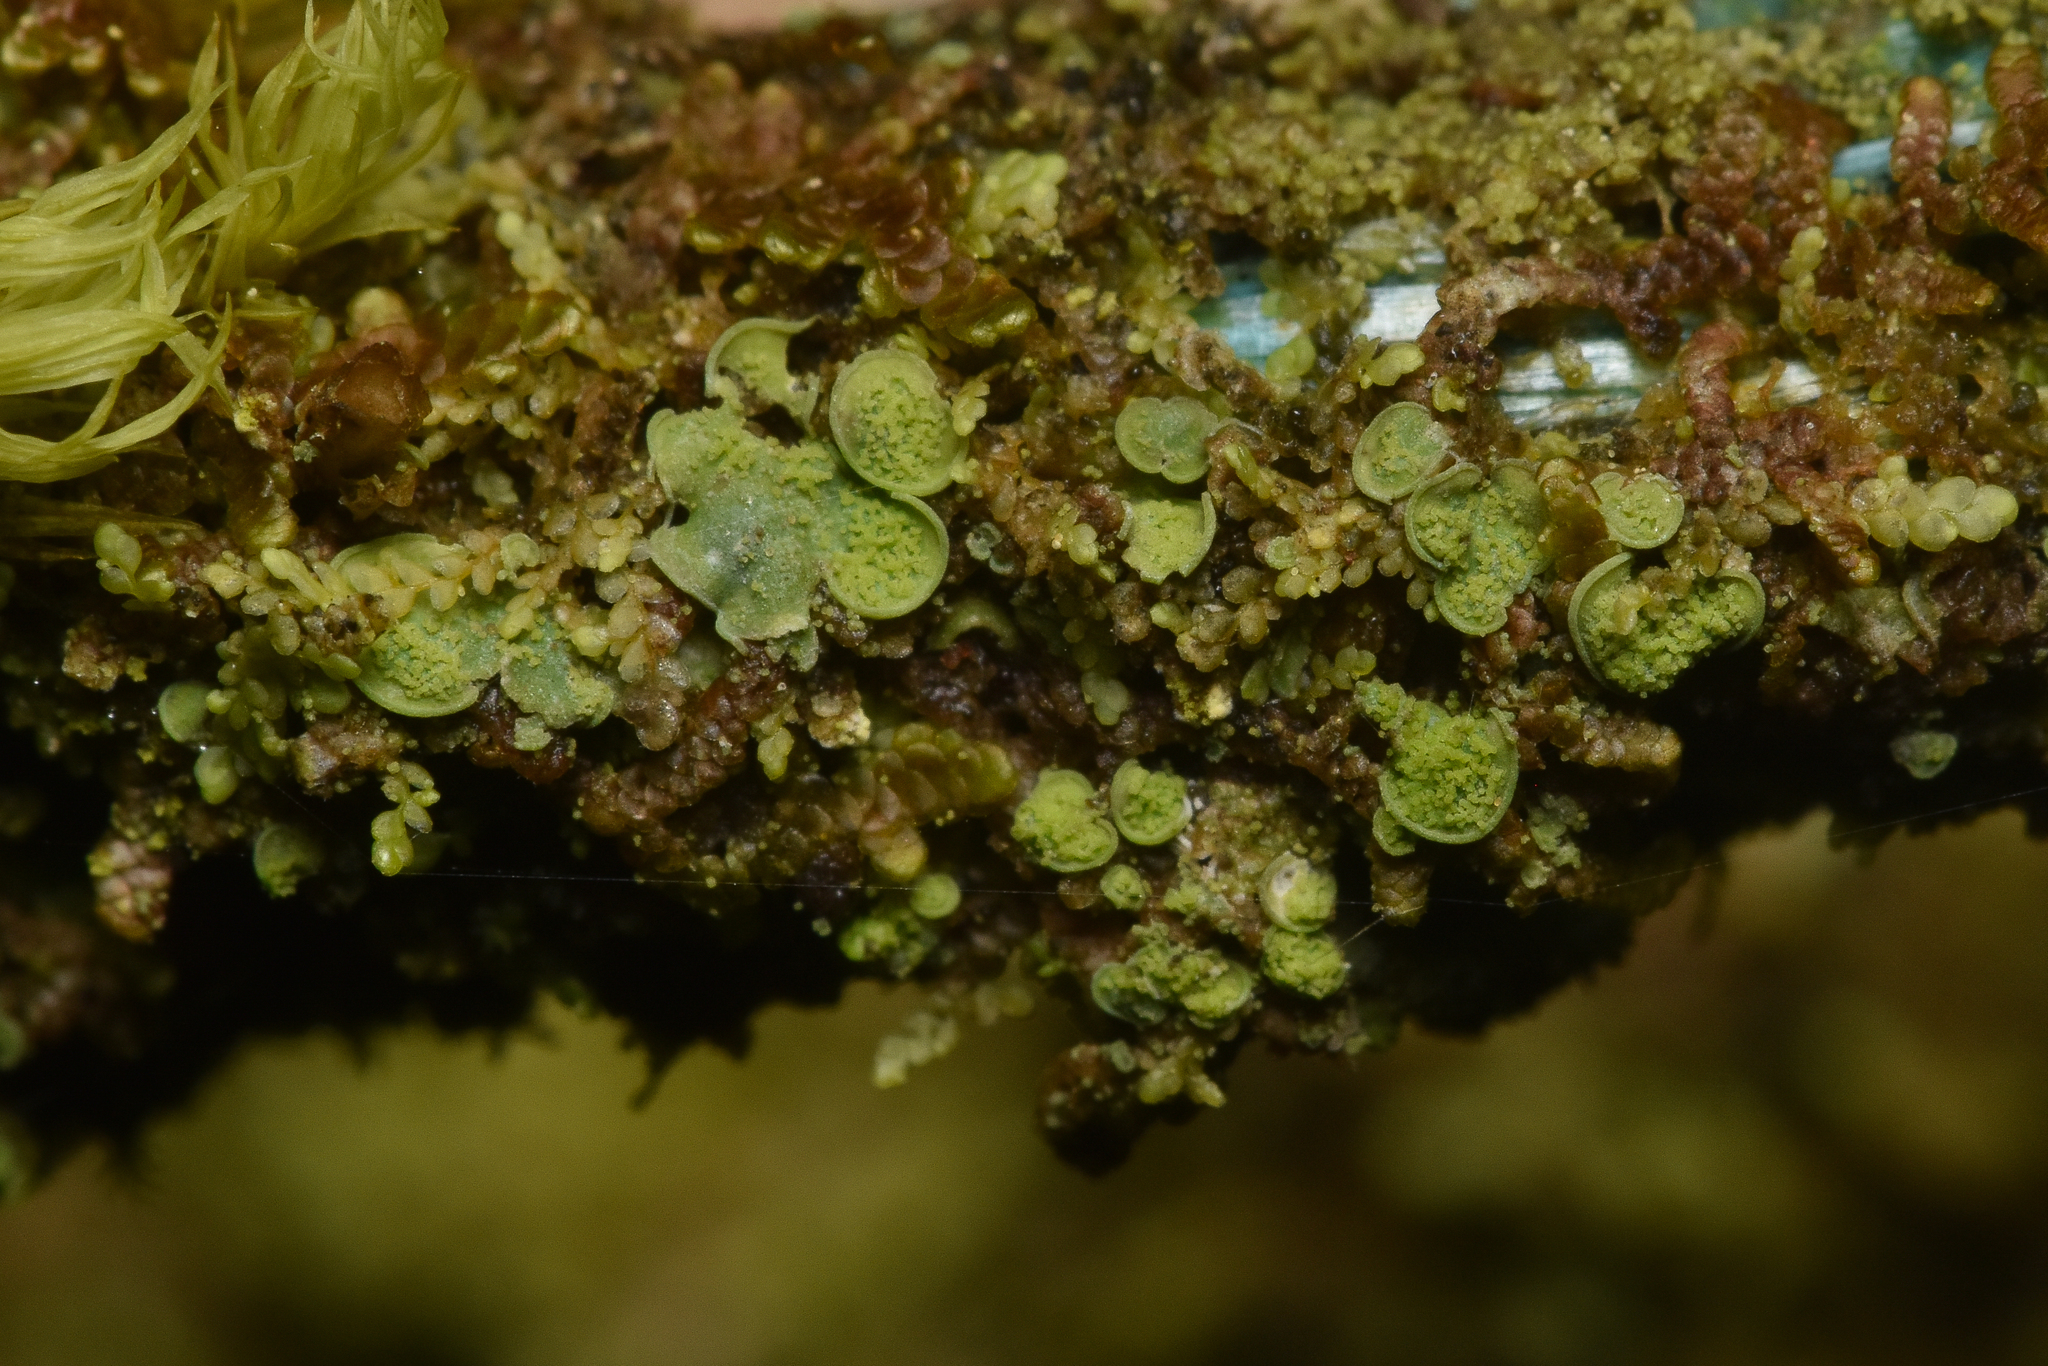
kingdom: Fungi
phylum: Ascomycota
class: Eurotiomycetes
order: Verrucariales
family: Verrucariaceae
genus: Normandina
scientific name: Normandina pulchella
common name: Elf ears lichen
